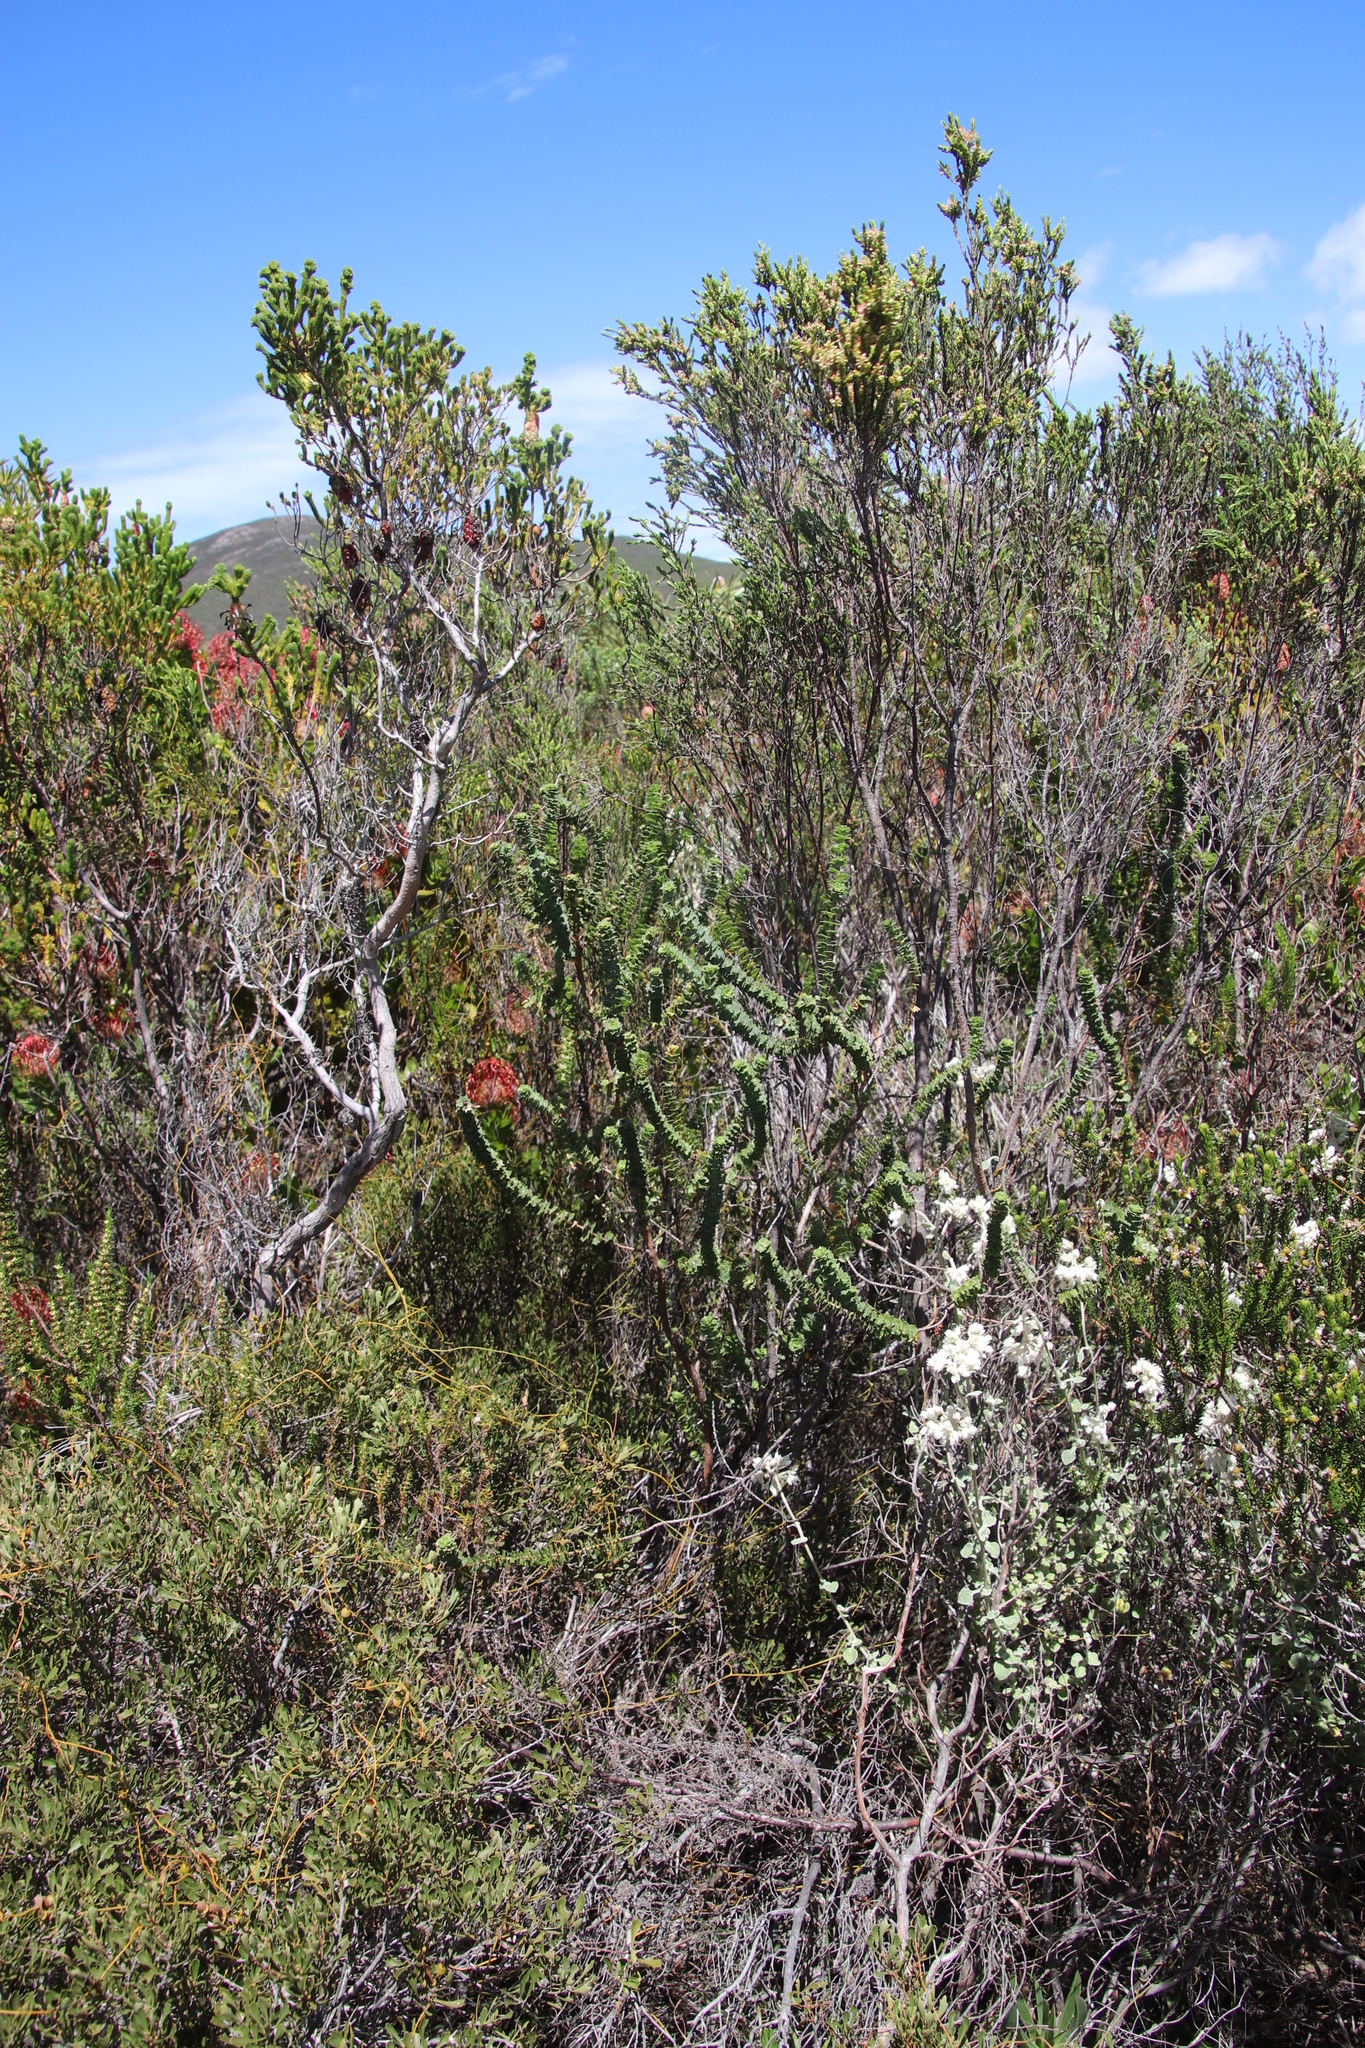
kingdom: Plantae
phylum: Tracheophyta
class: Magnoliopsida
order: Rosales
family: Rosaceae
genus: Cliffortia
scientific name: Cliffortia schlechteri
